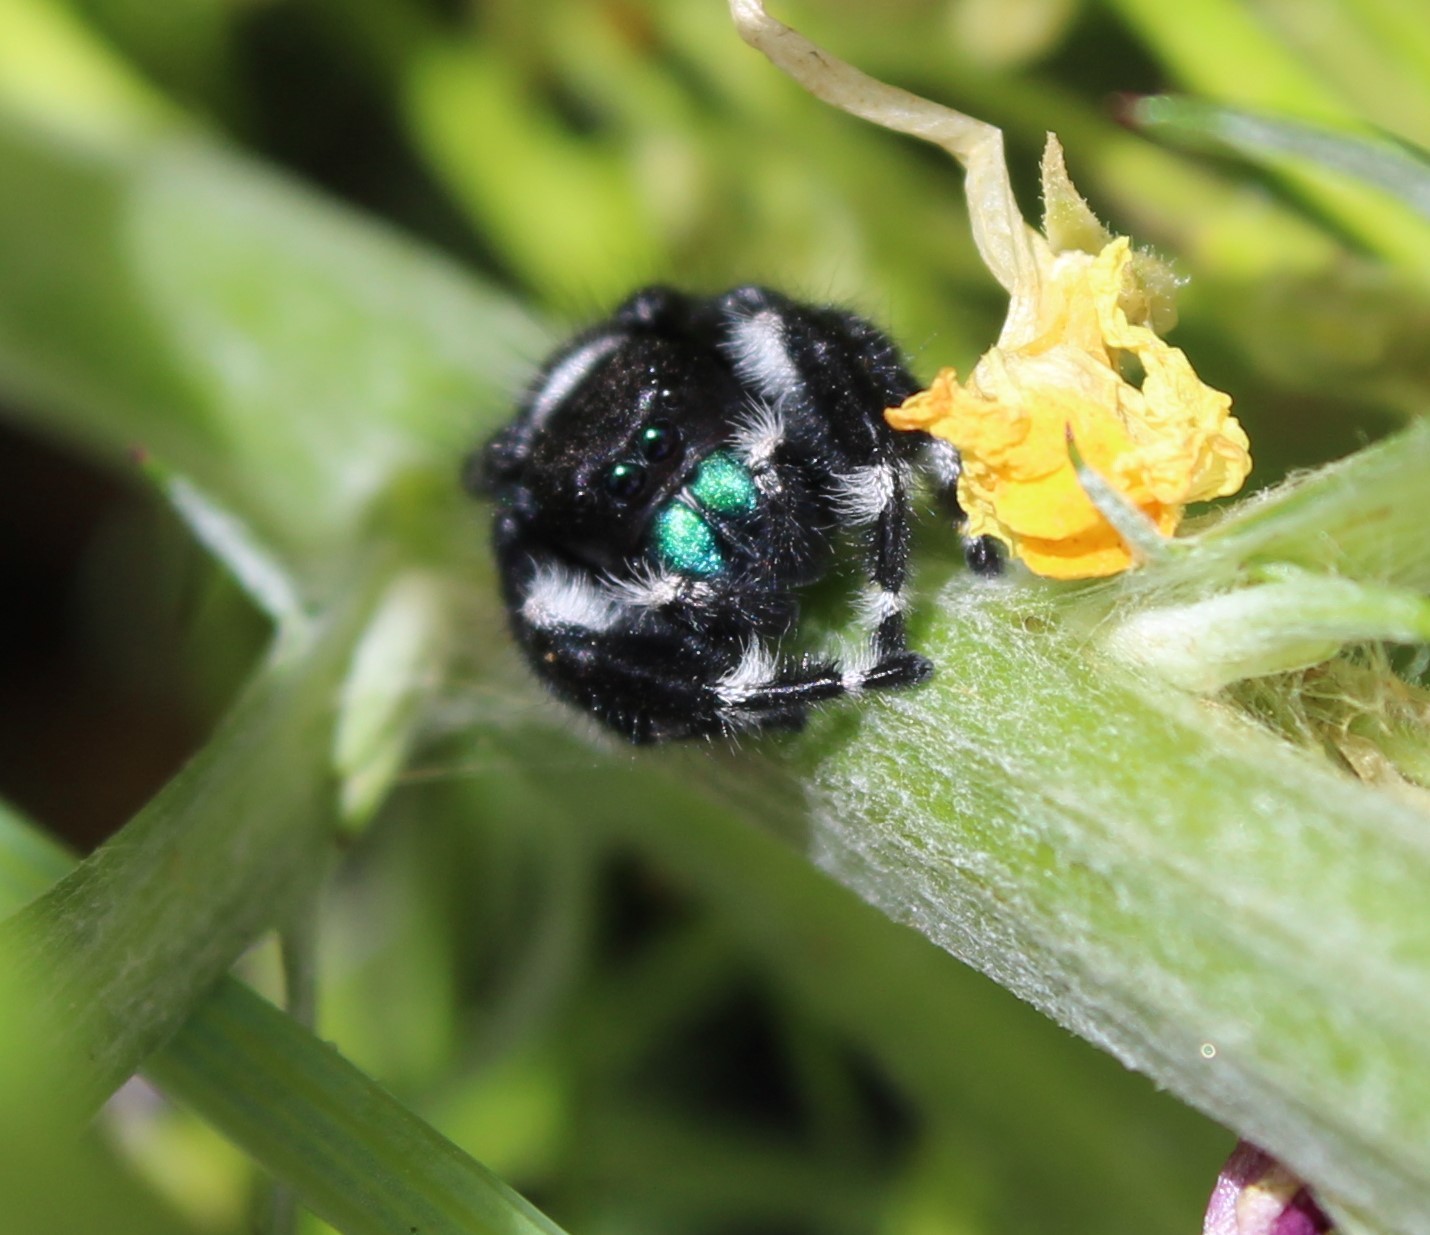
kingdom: Animalia
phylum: Arthropoda
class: Arachnida
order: Araneae
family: Salticidae
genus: Phidippus
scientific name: Phidippus audax
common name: Bold jumper
